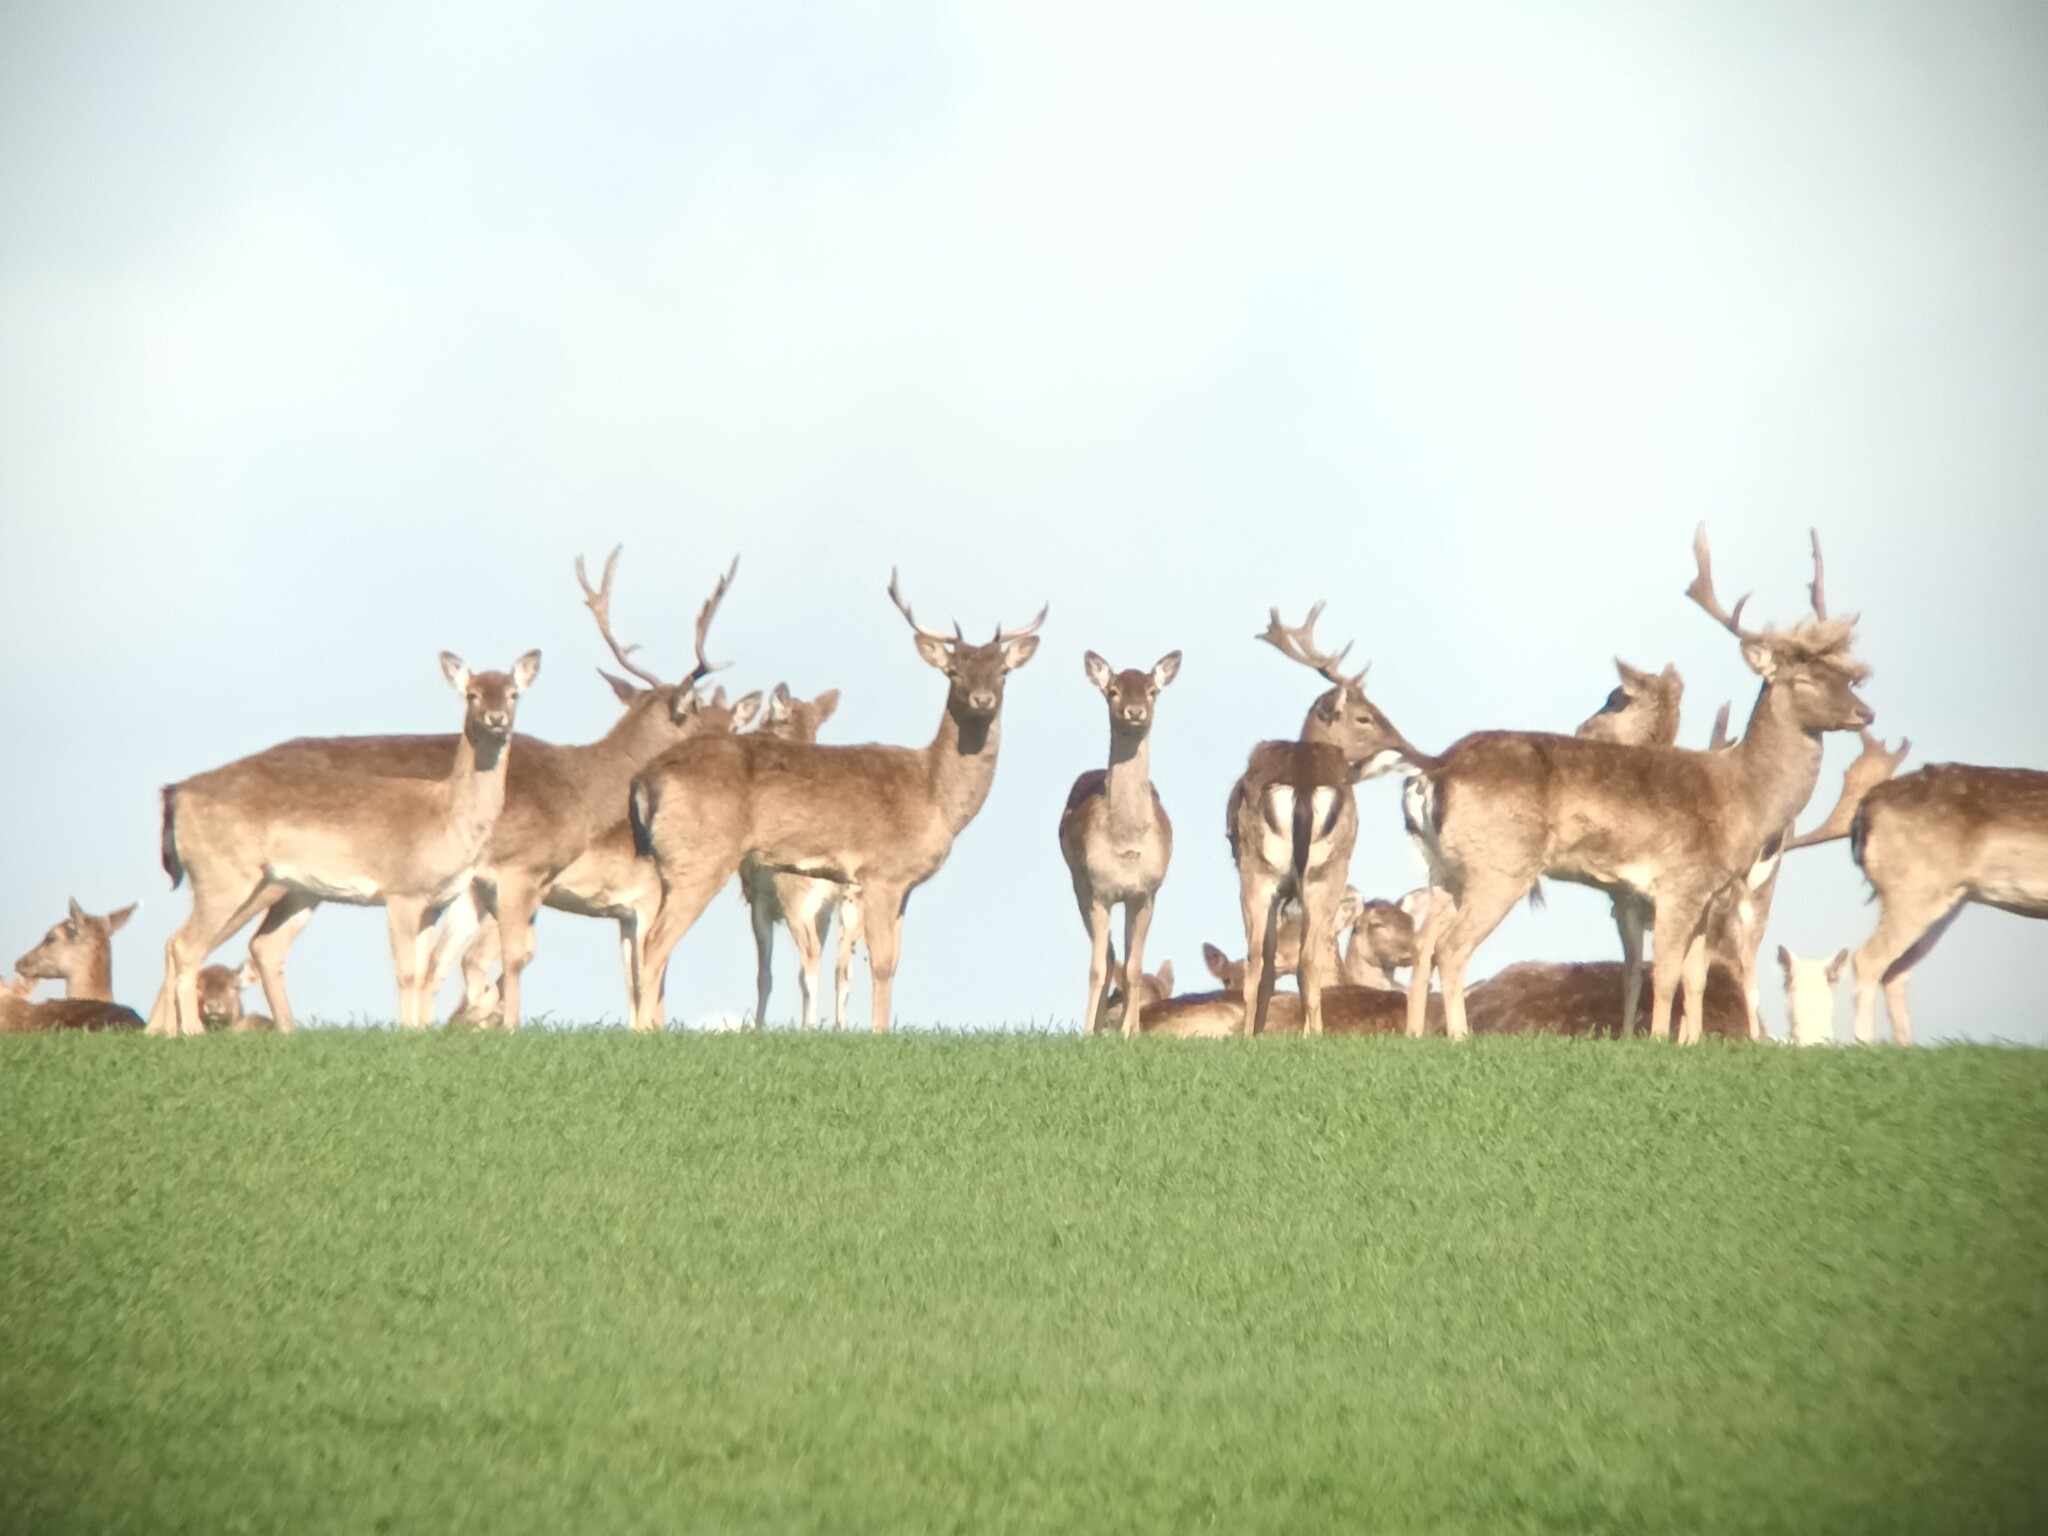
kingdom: Animalia
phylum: Chordata
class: Mammalia
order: Artiodactyla
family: Cervidae
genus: Dama
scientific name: Dama dama
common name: Fallow deer
